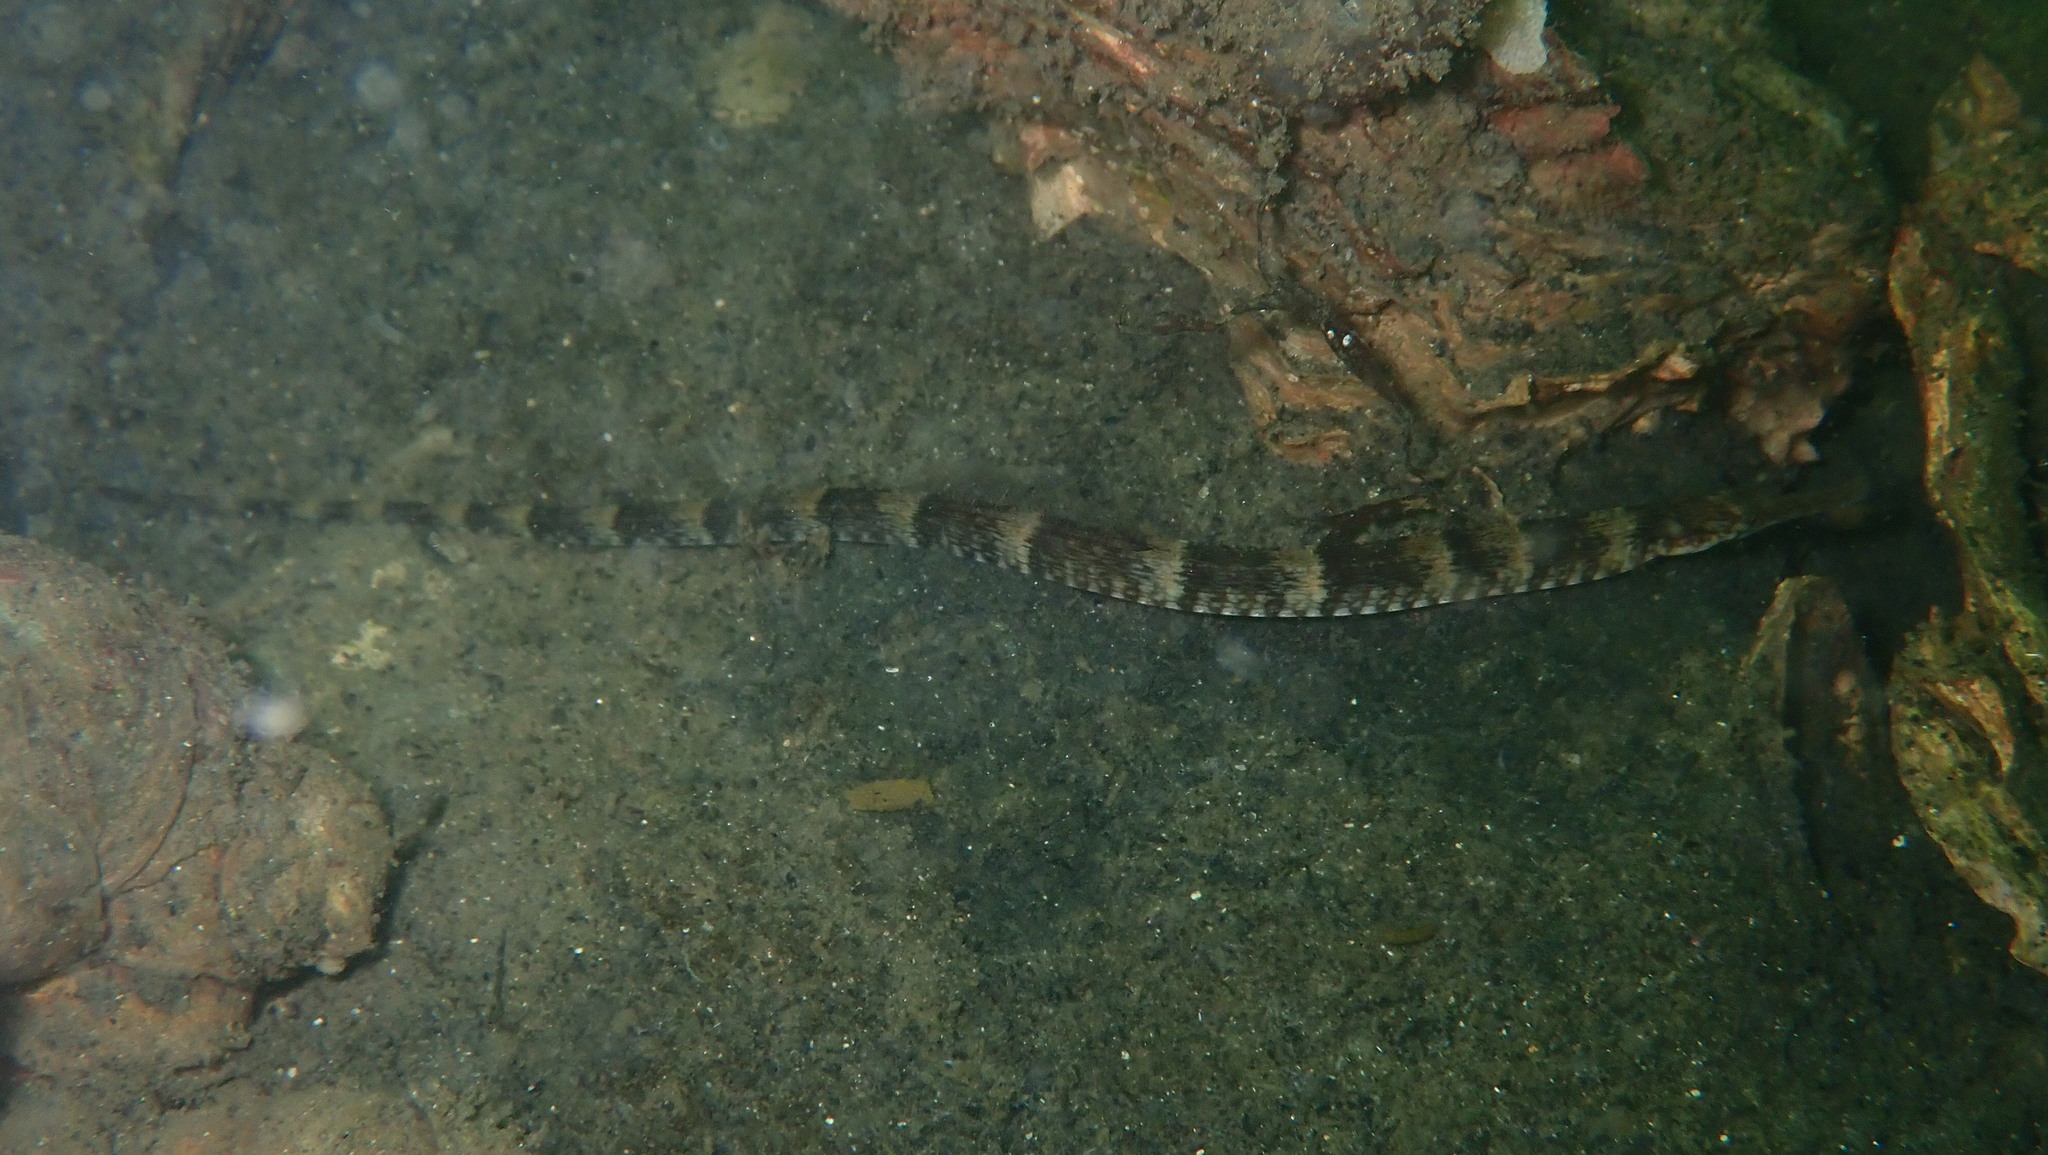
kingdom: Animalia
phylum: Chordata
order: Syngnathiformes
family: Syngnathidae
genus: Syngnathus
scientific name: Syngnathus acus
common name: Greater pipefish
